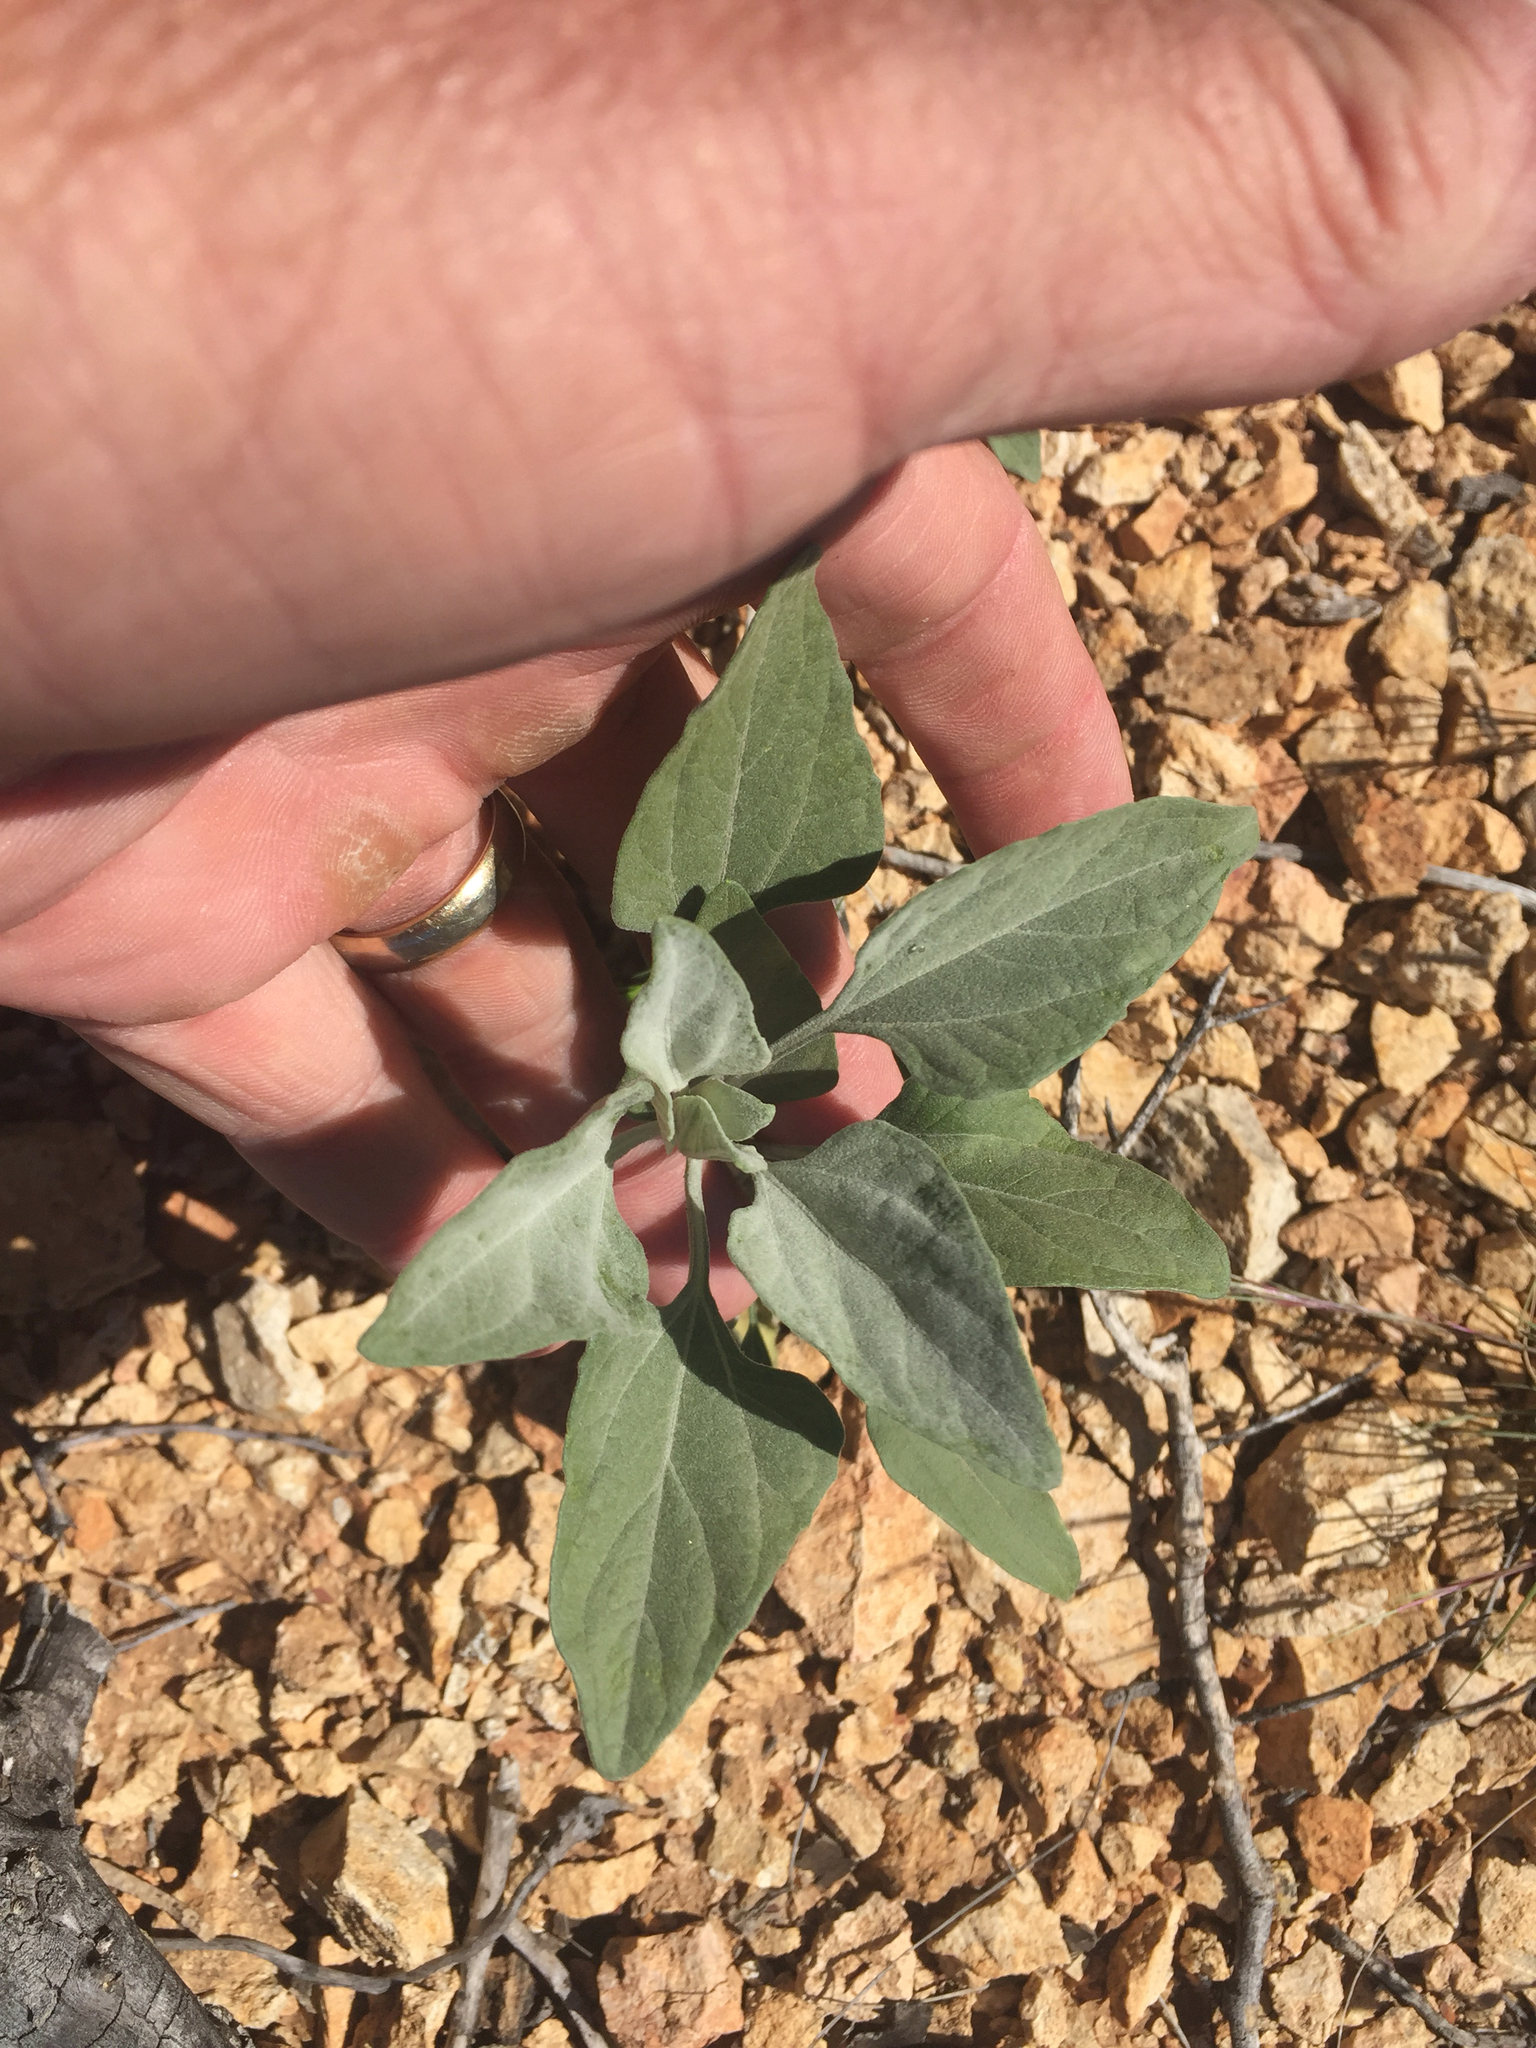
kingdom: Plantae
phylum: Tracheophyta
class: Magnoliopsida
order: Asterales
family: Asteraceae
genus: Encelia
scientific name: Encelia farinosa
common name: Brittlebush
